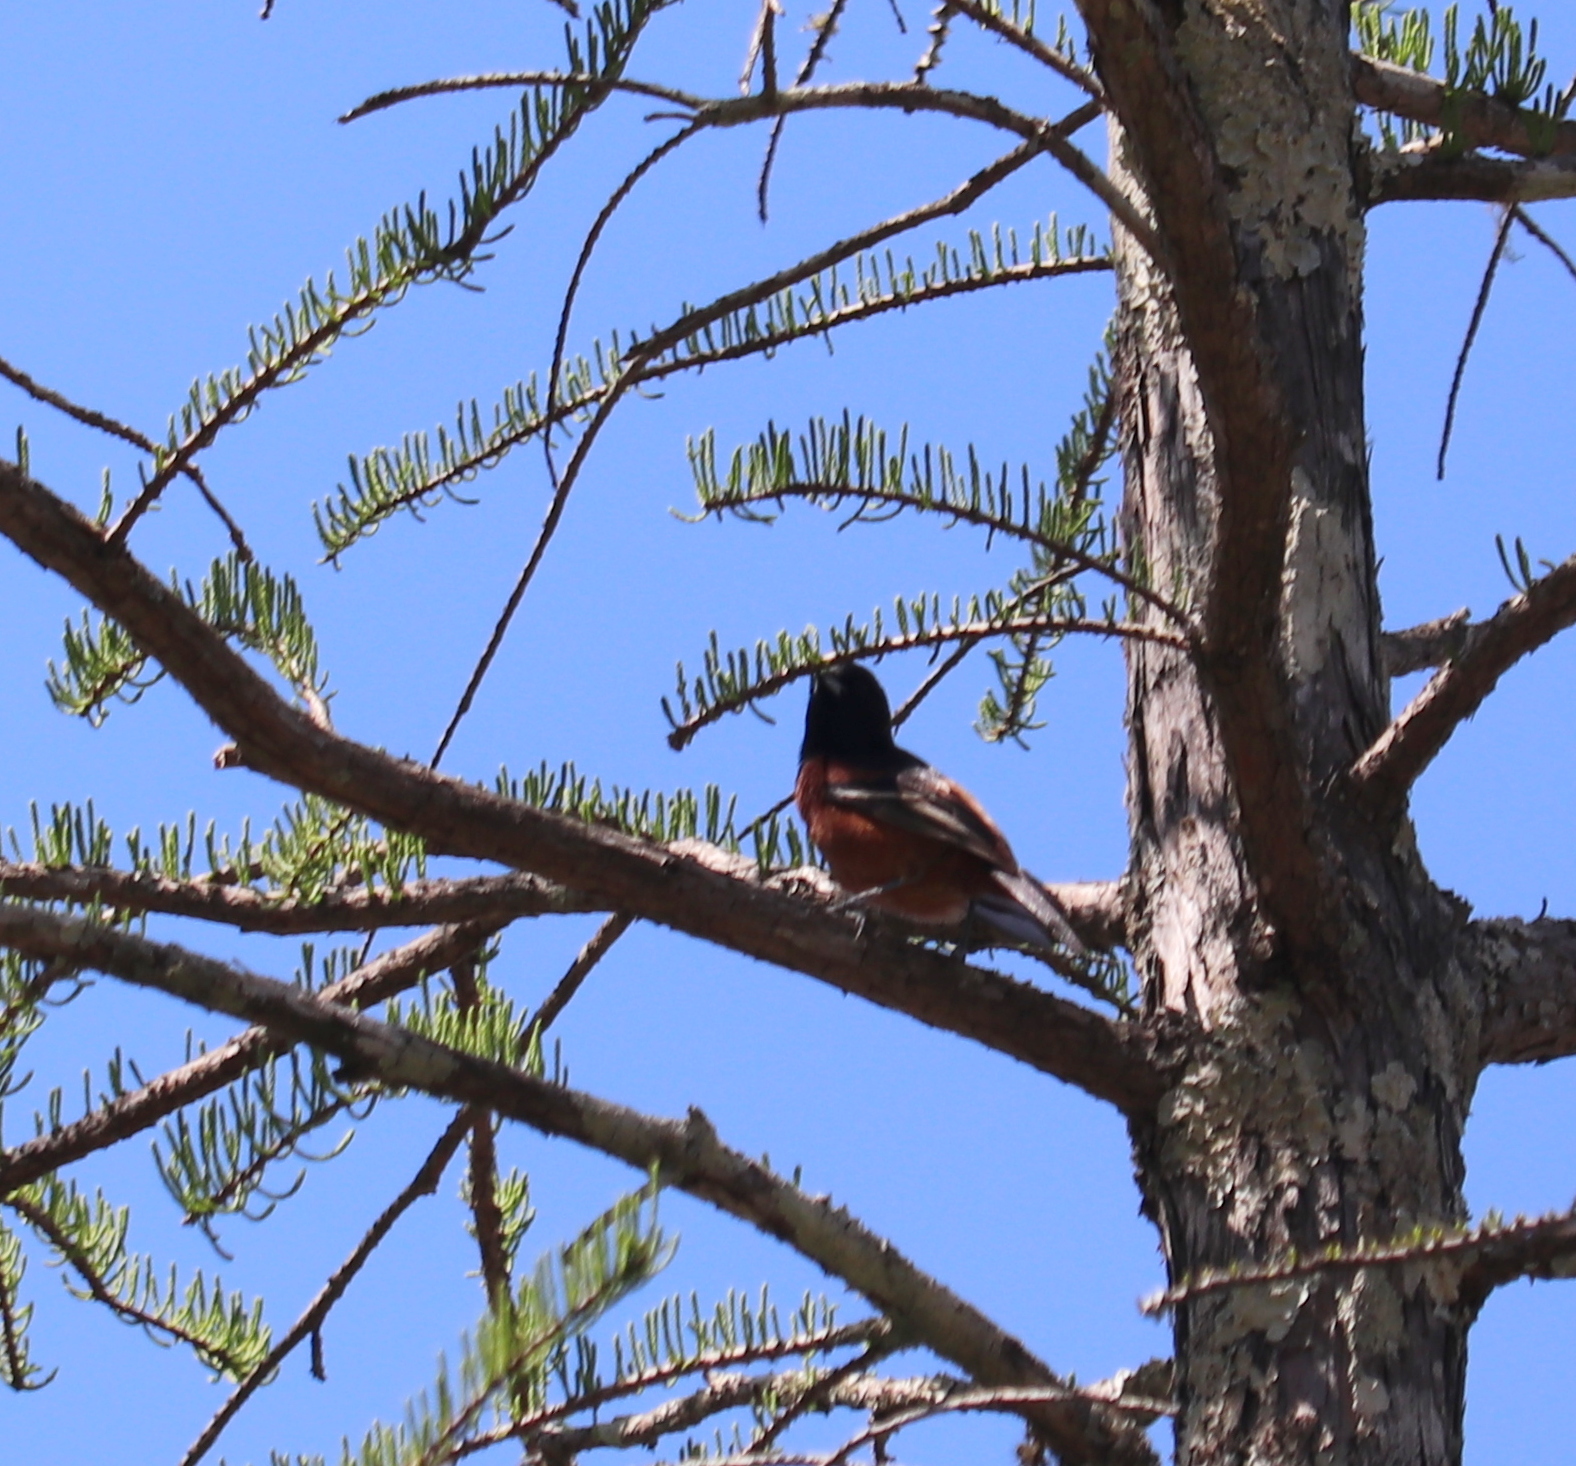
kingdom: Animalia
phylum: Chordata
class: Aves
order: Passeriformes
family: Icteridae
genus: Icterus
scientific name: Icterus spurius
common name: Orchard oriole
